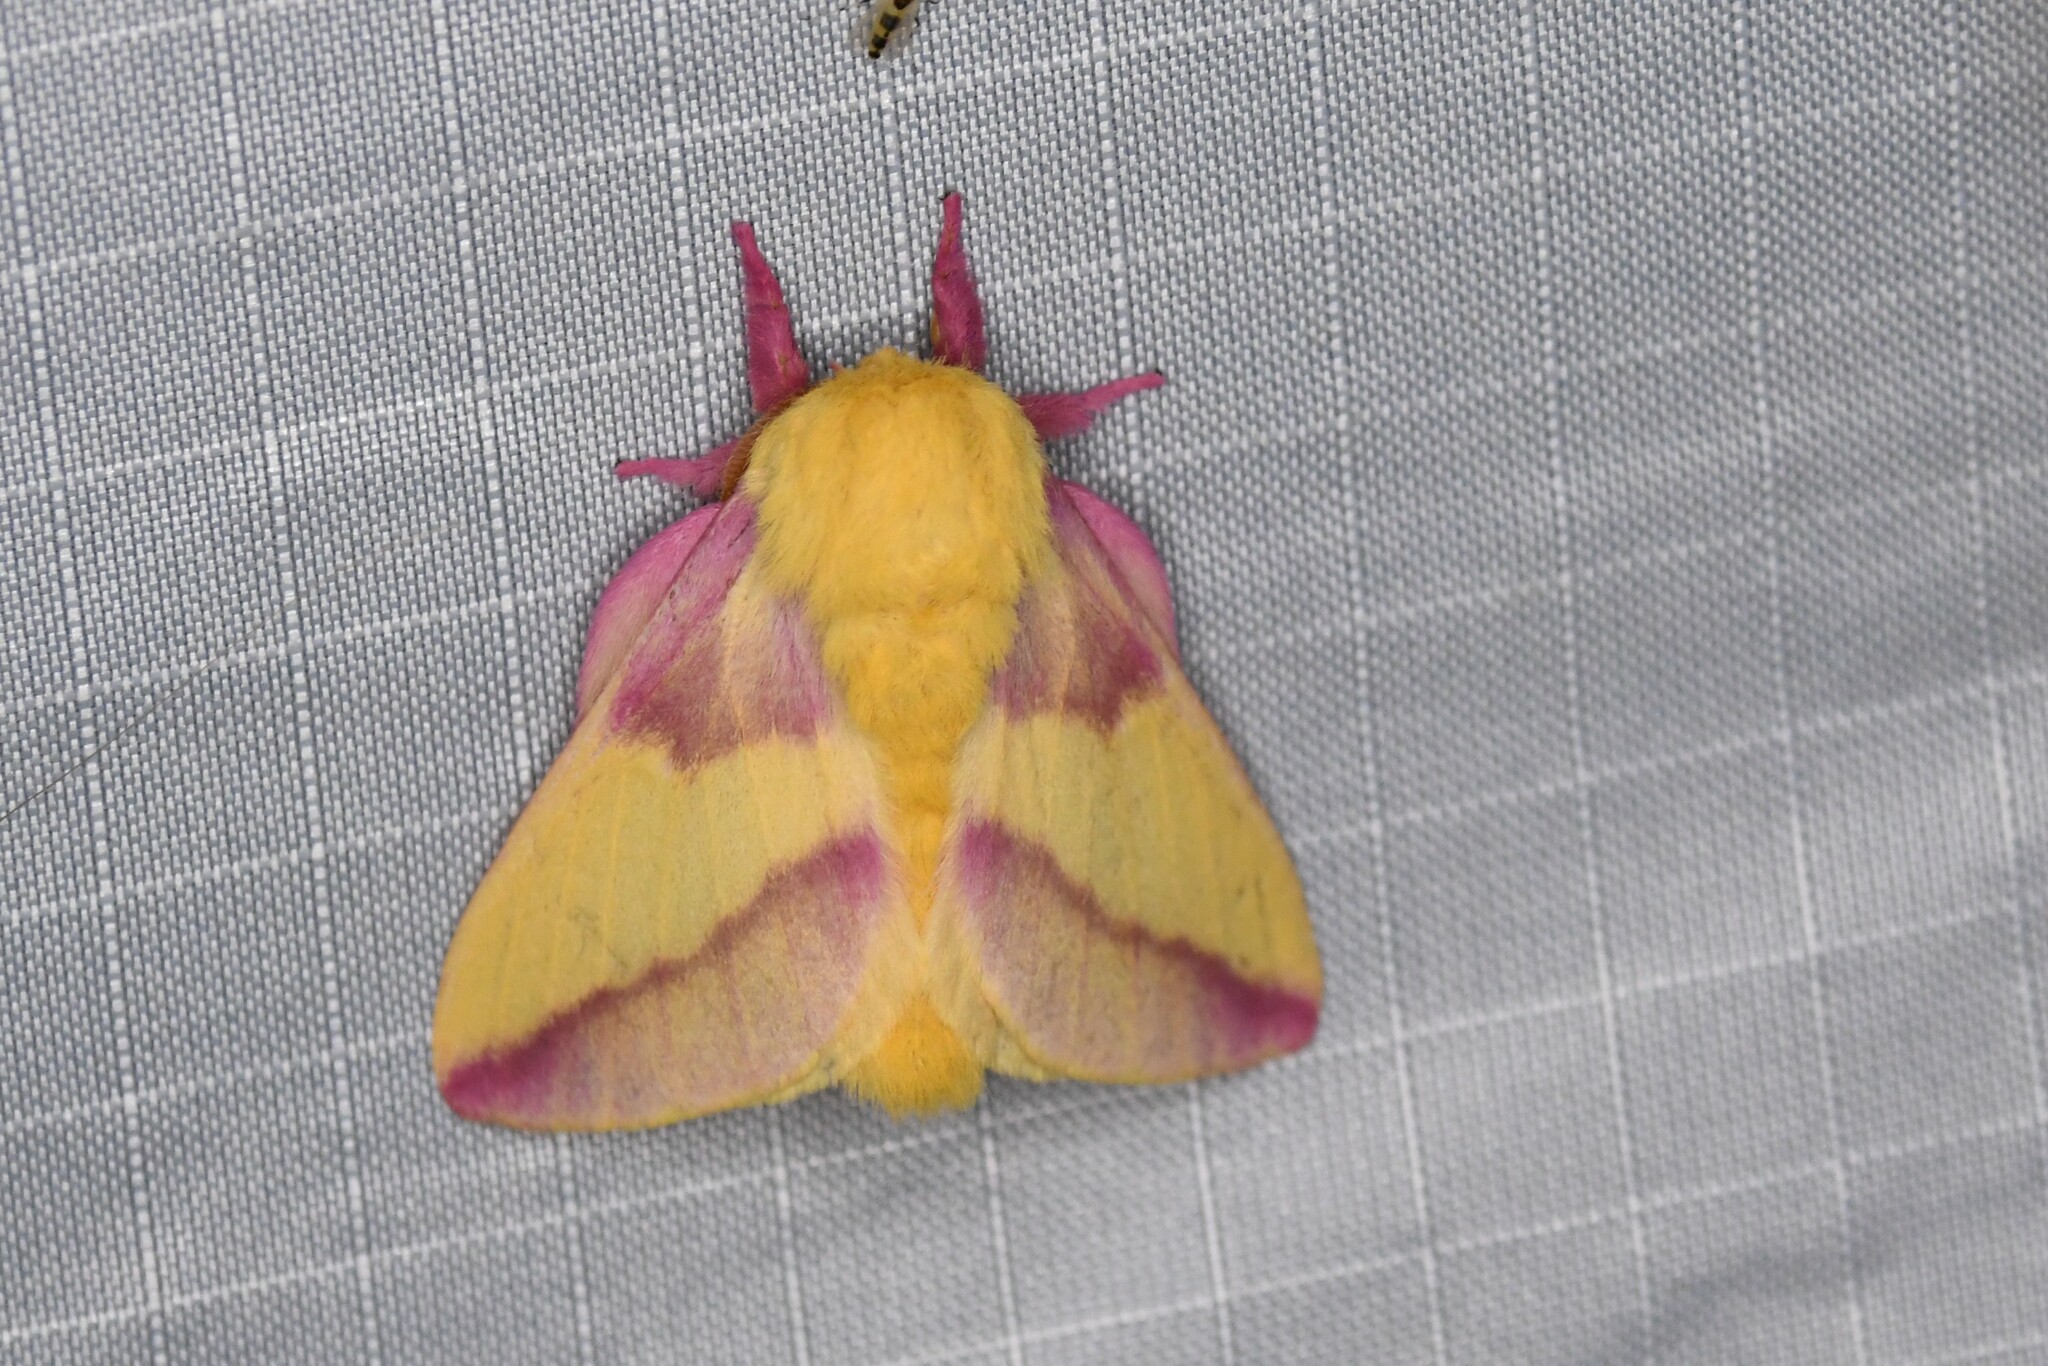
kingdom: Animalia
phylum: Arthropoda
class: Insecta
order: Lepidoptera
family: Saturniidae
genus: Dryocampa
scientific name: Dryocampa rubicunda
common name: Rosy maple moth
